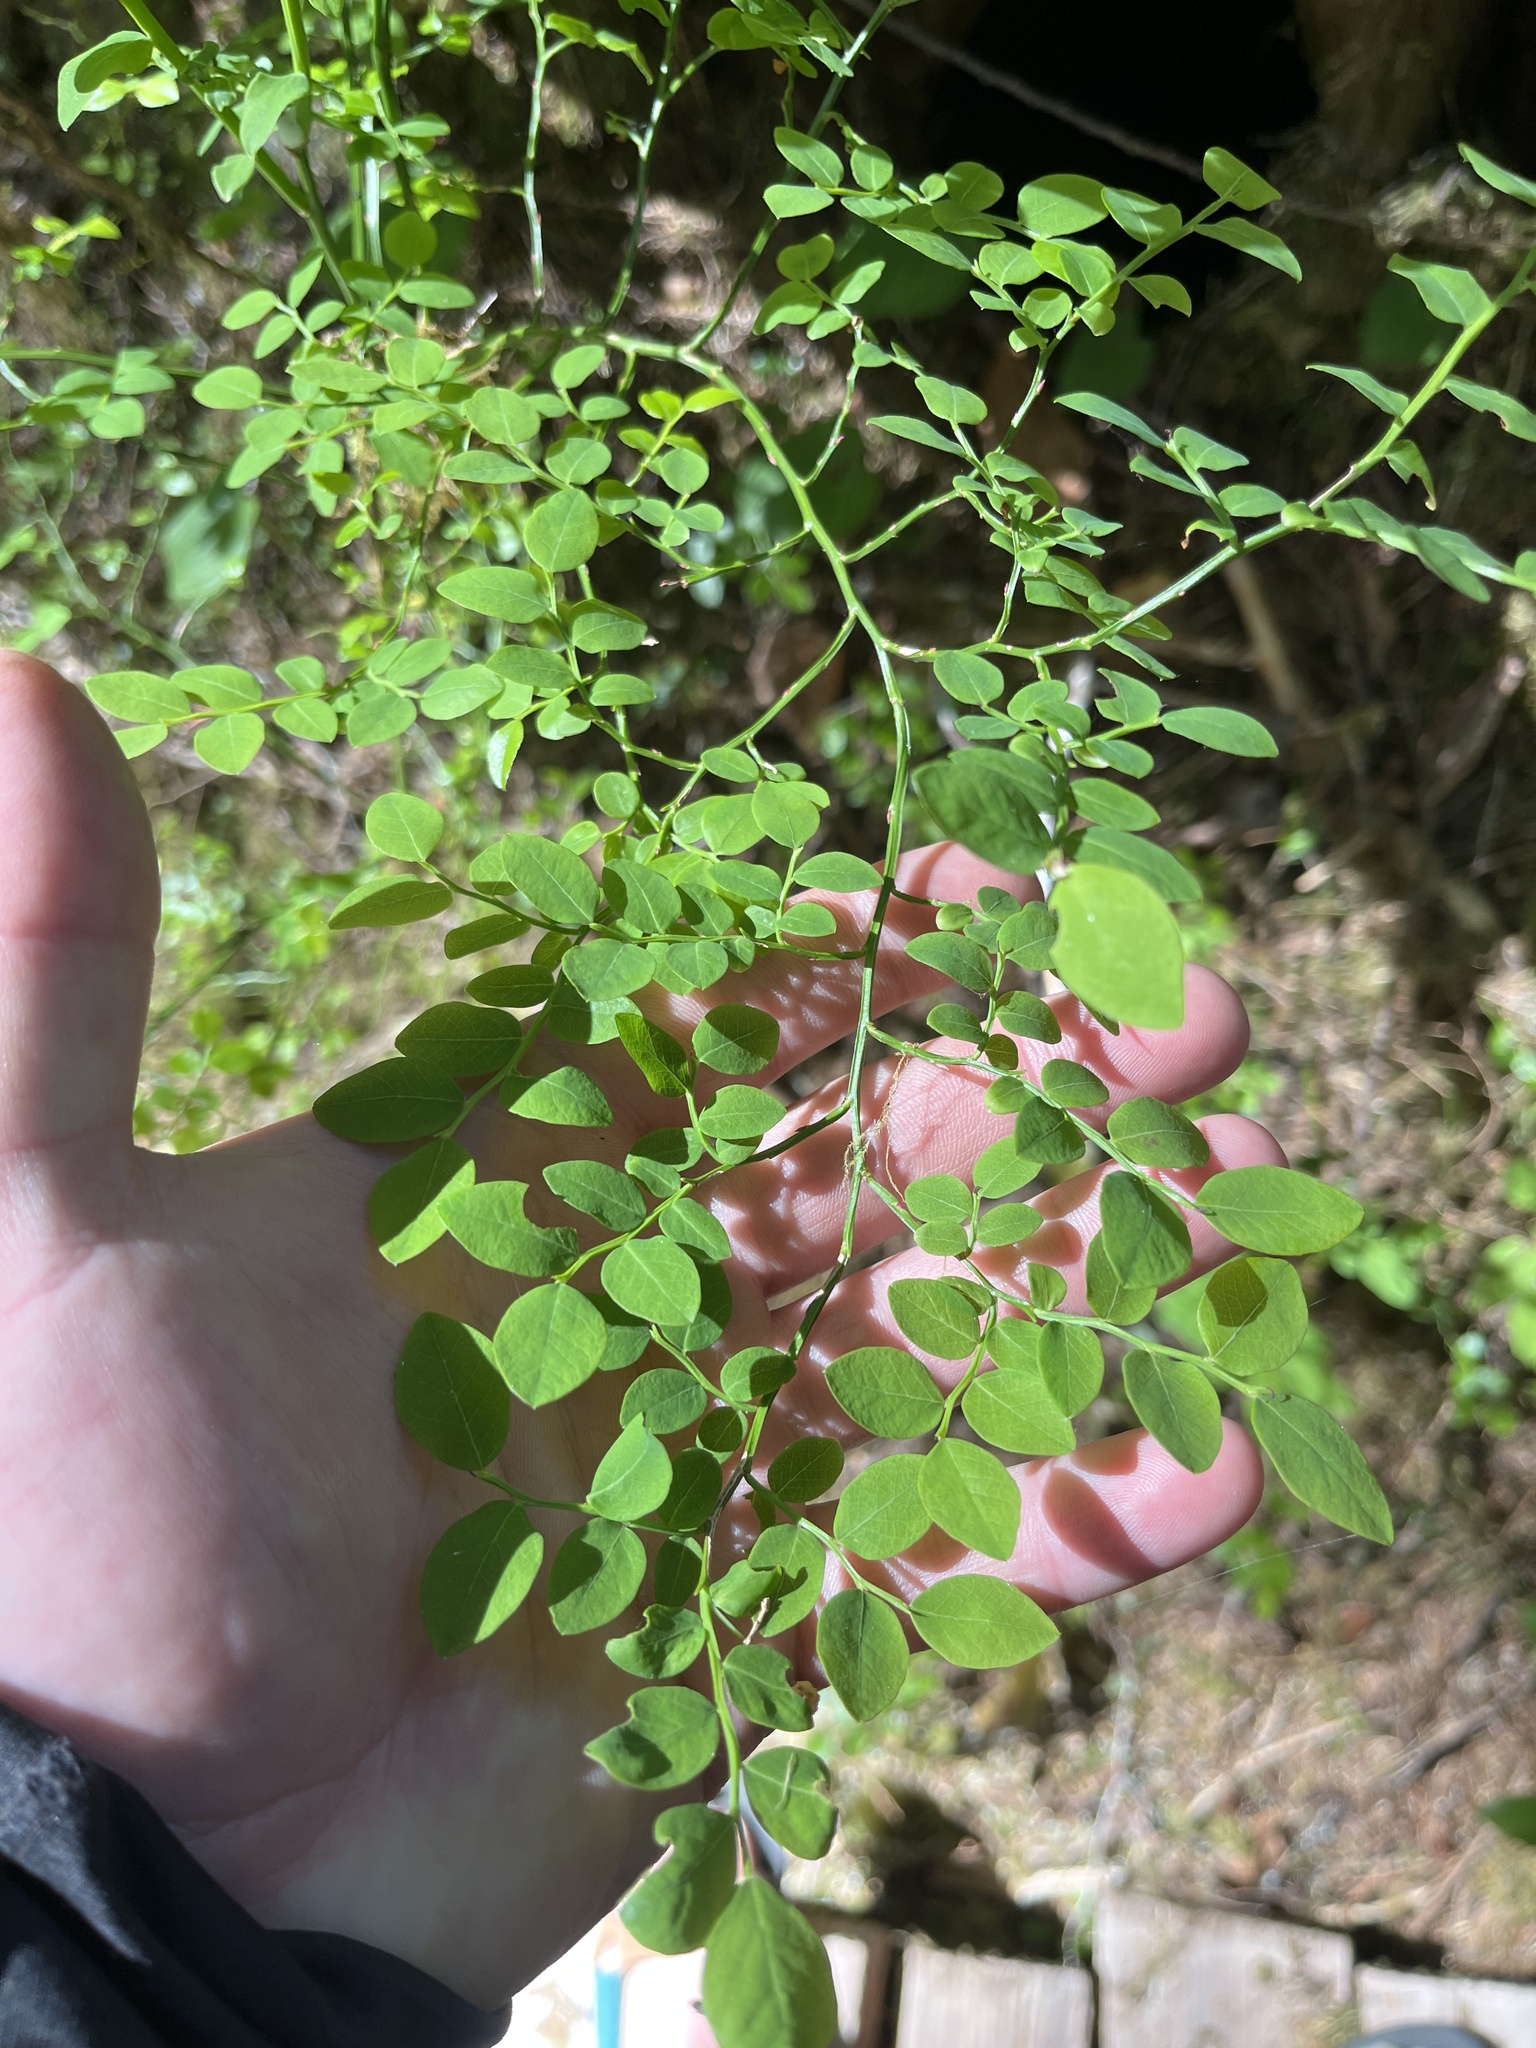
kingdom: Plantae
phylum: Tracheophyta
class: Magnoliopsida
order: Ericales
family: Ericaceae
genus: Vaccinium
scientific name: Vaccinium parvifolium
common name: Red-huckleberry
